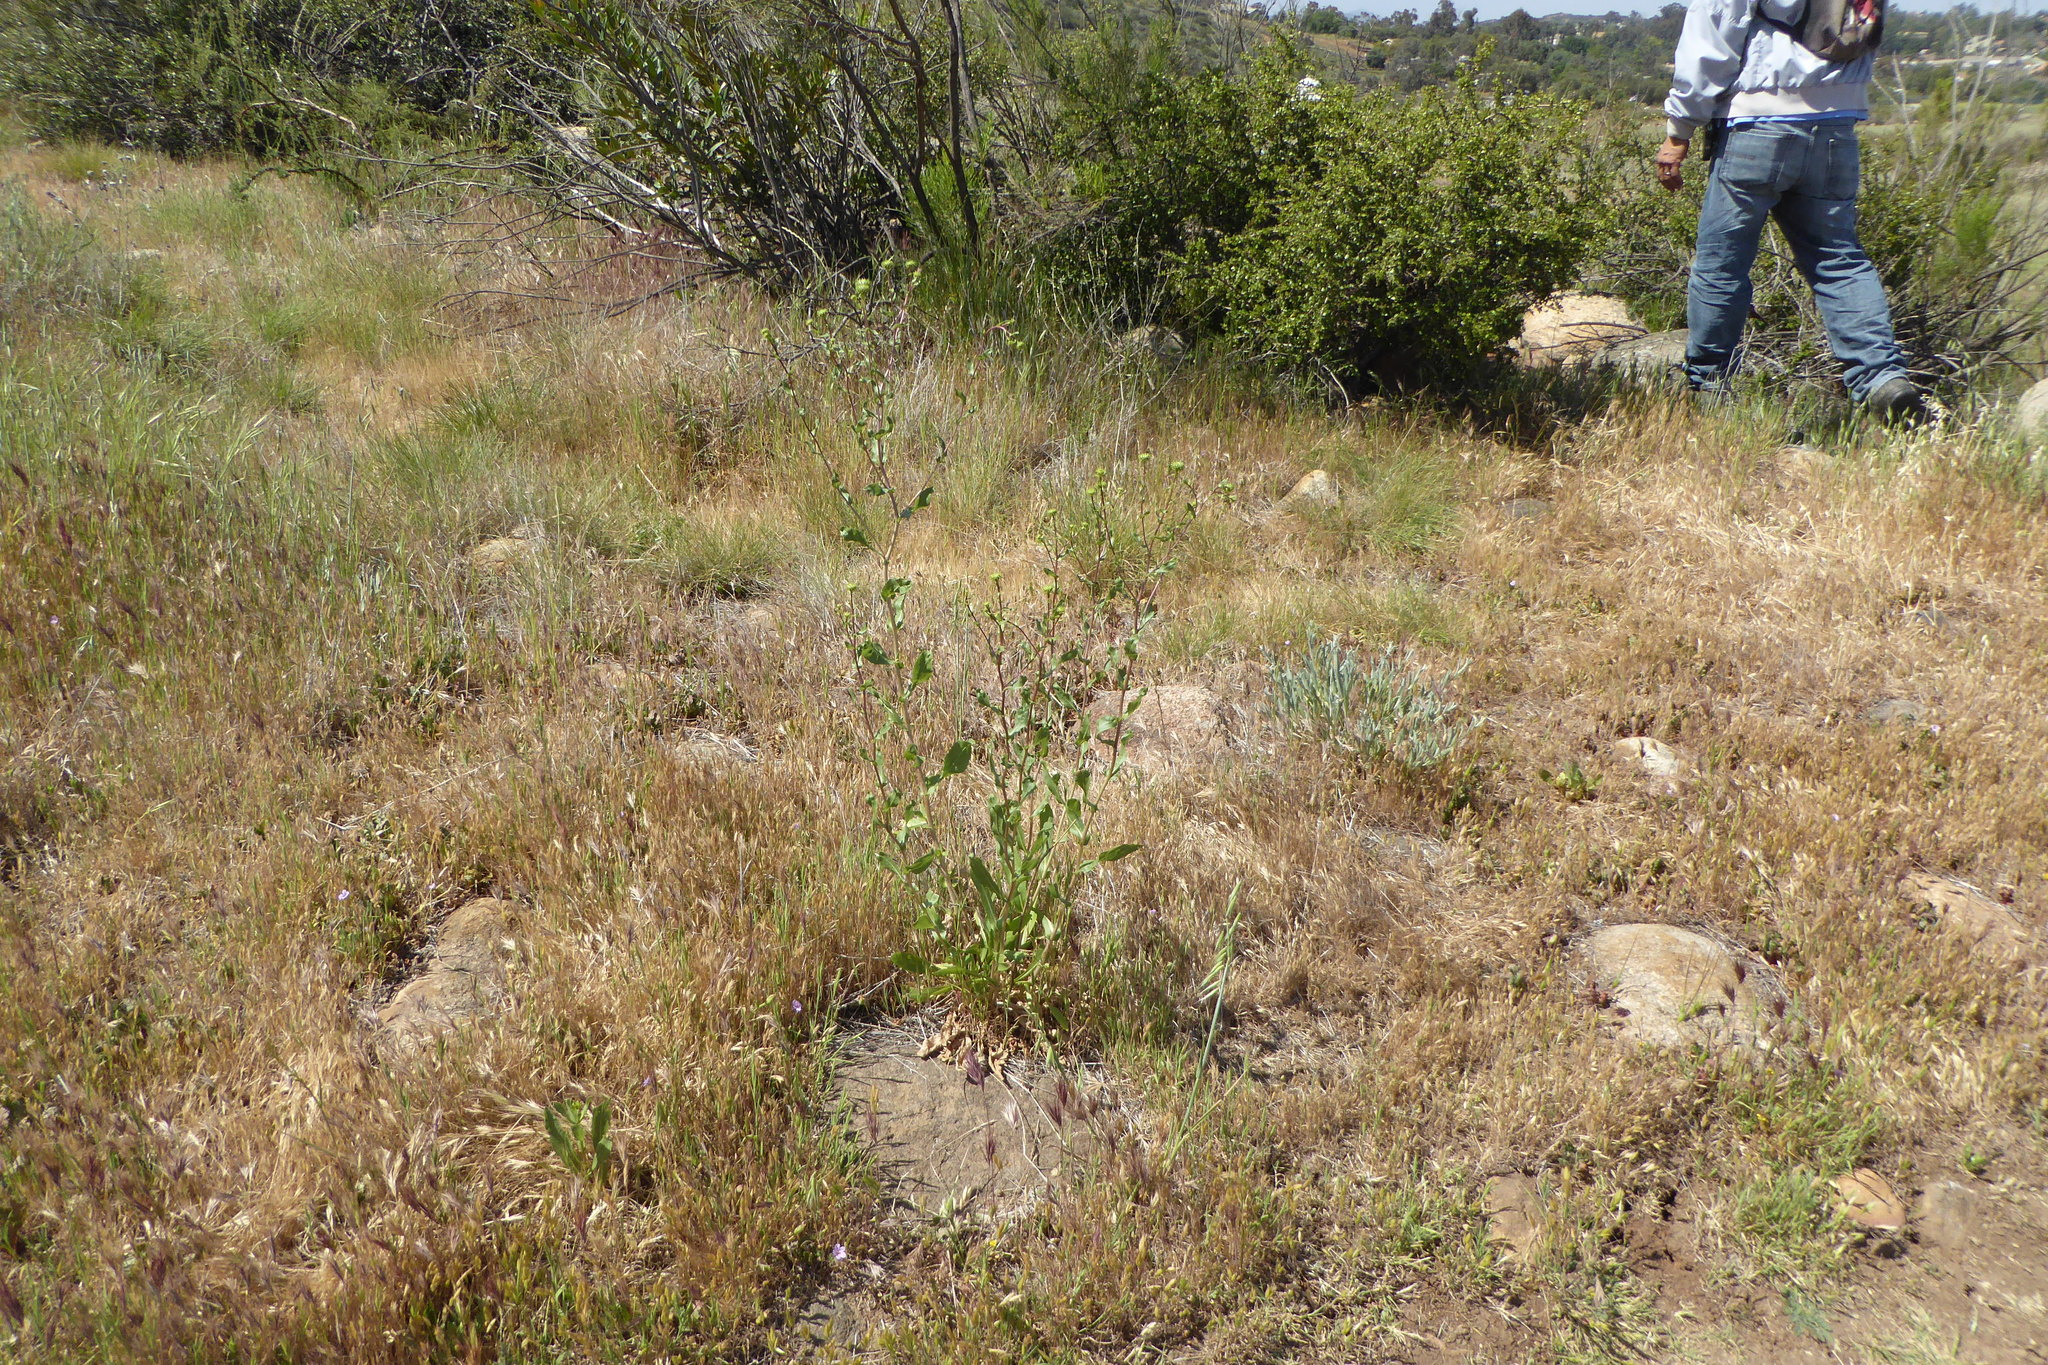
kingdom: Plantae
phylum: Tracheophyta
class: Magnoliopsida
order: Asterales
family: Asteraceae
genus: Grindelia
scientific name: Grindelia hirsutula
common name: Hairy gumweed
